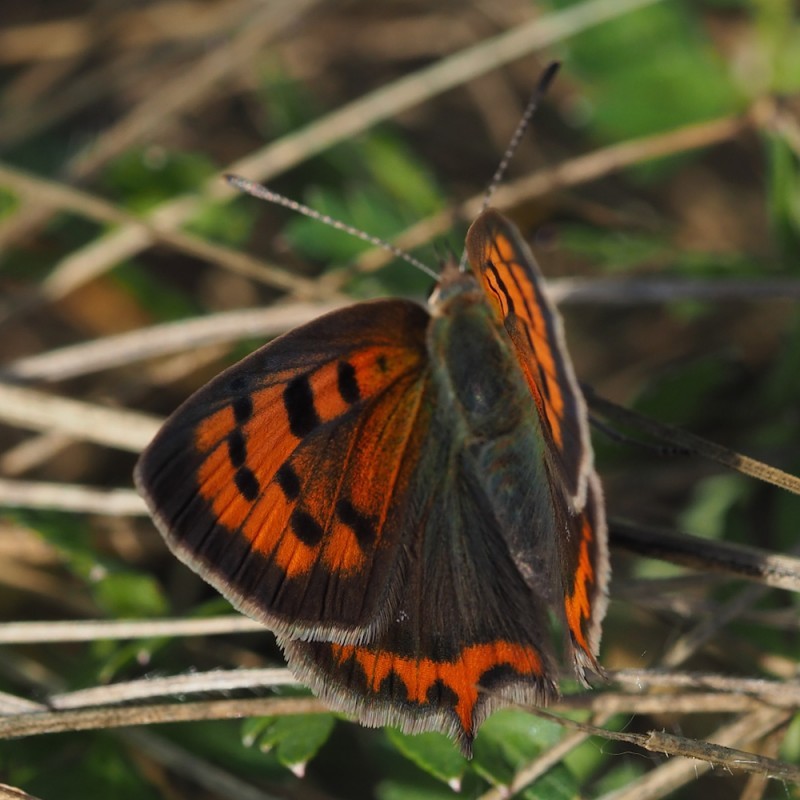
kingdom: Animalia
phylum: Arthropoda
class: Insecta
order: Lepidoptera
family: Lycaenidae
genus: Lycaena
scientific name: Lycaena phlaeas
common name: Small copper
